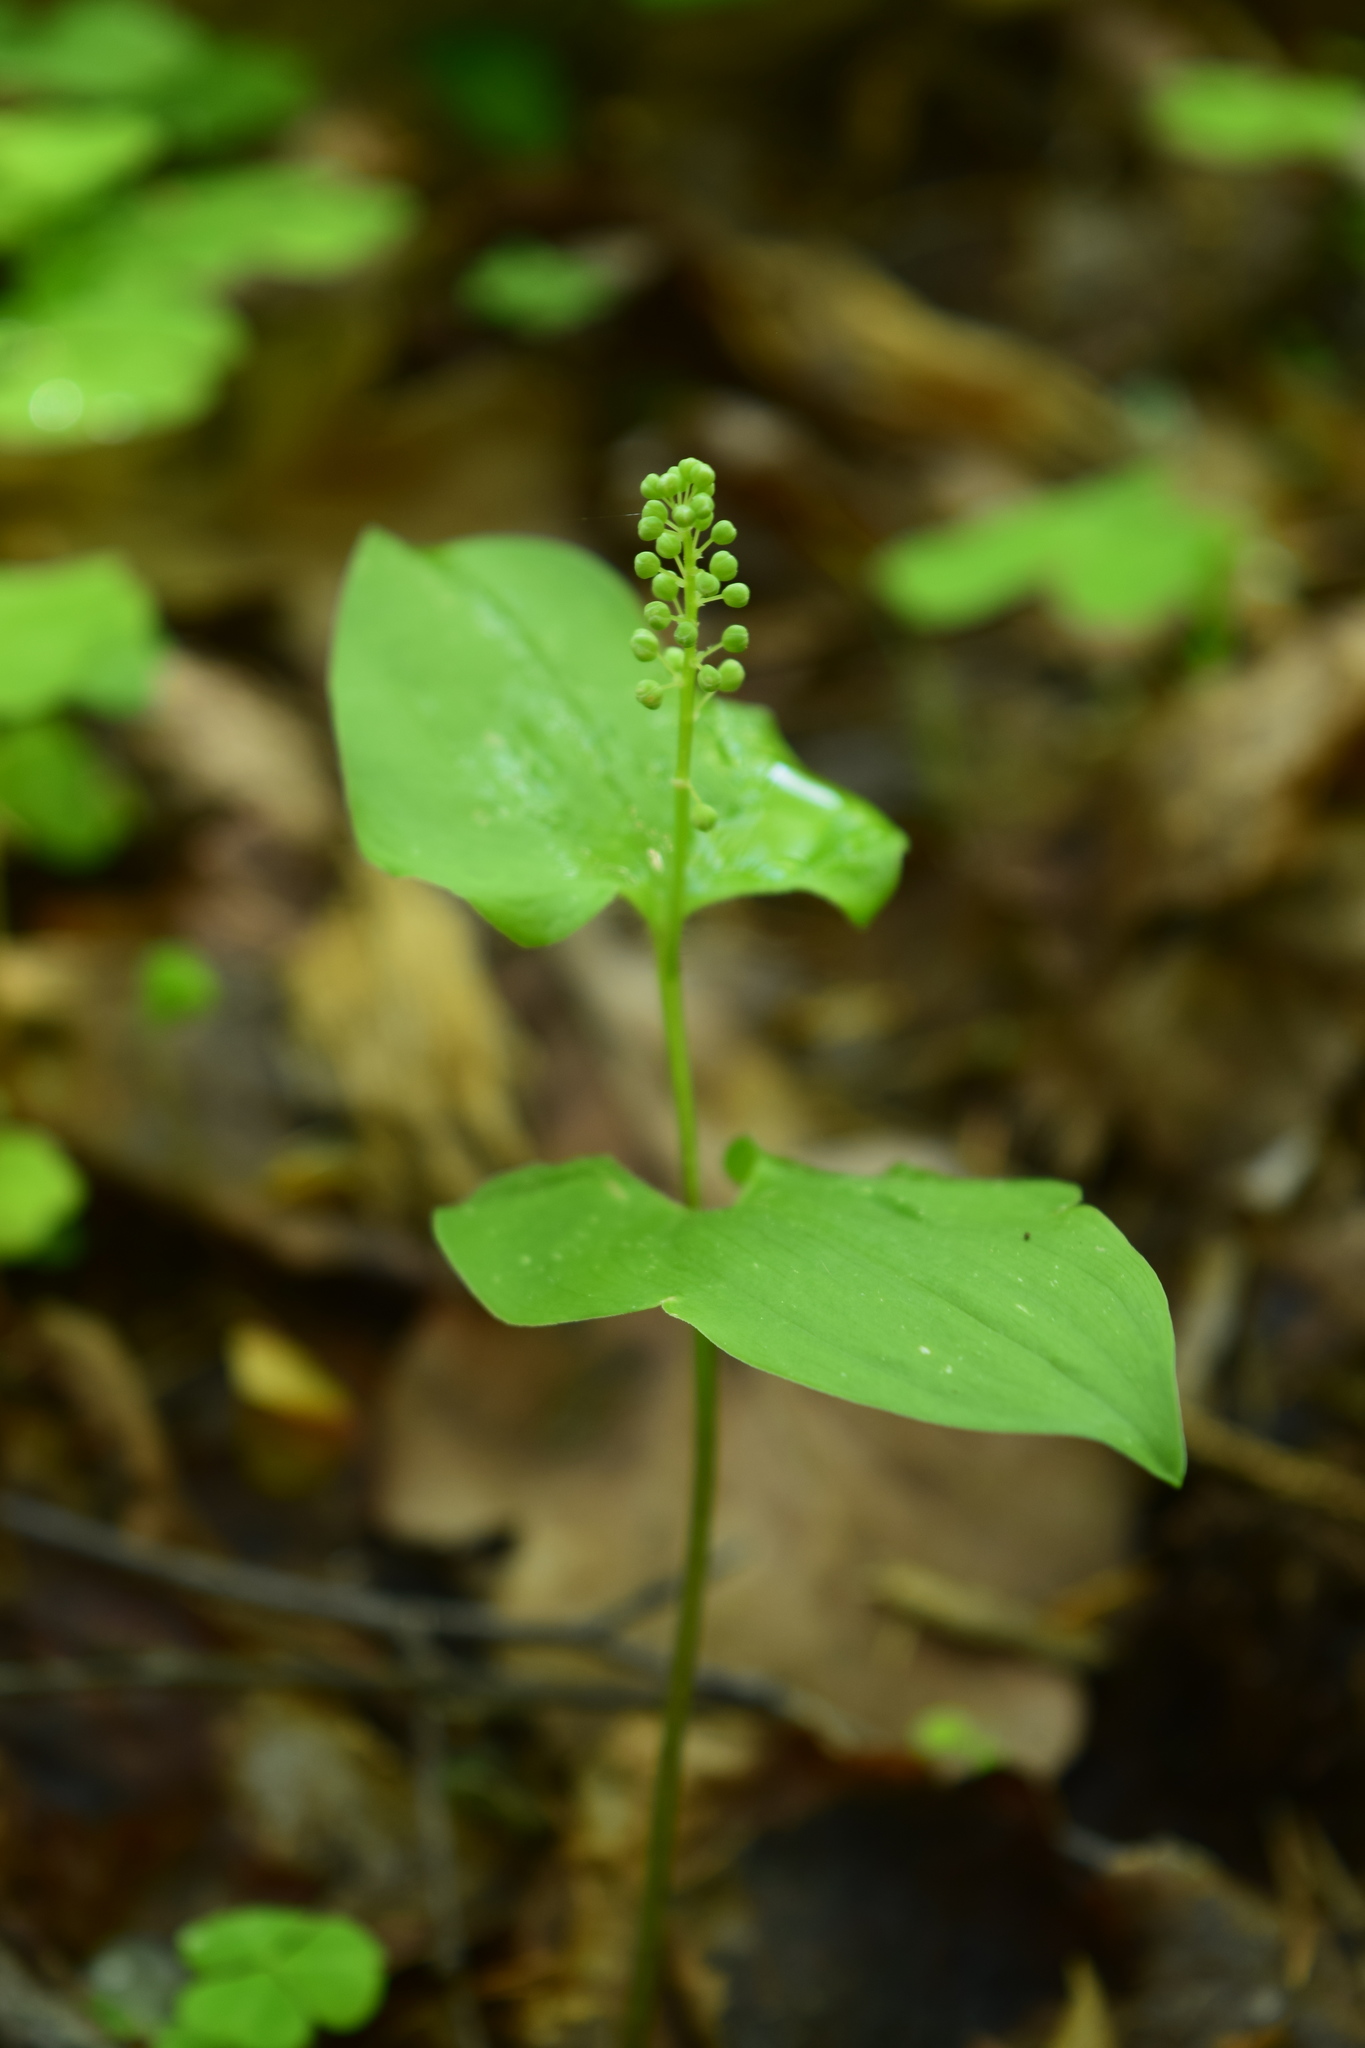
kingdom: Plantae
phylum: Tracheophyta
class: Liliopsida
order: Asparagales
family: Asparagaceae
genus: Maianthemum
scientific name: Maianthemum bifolium
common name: May lily
